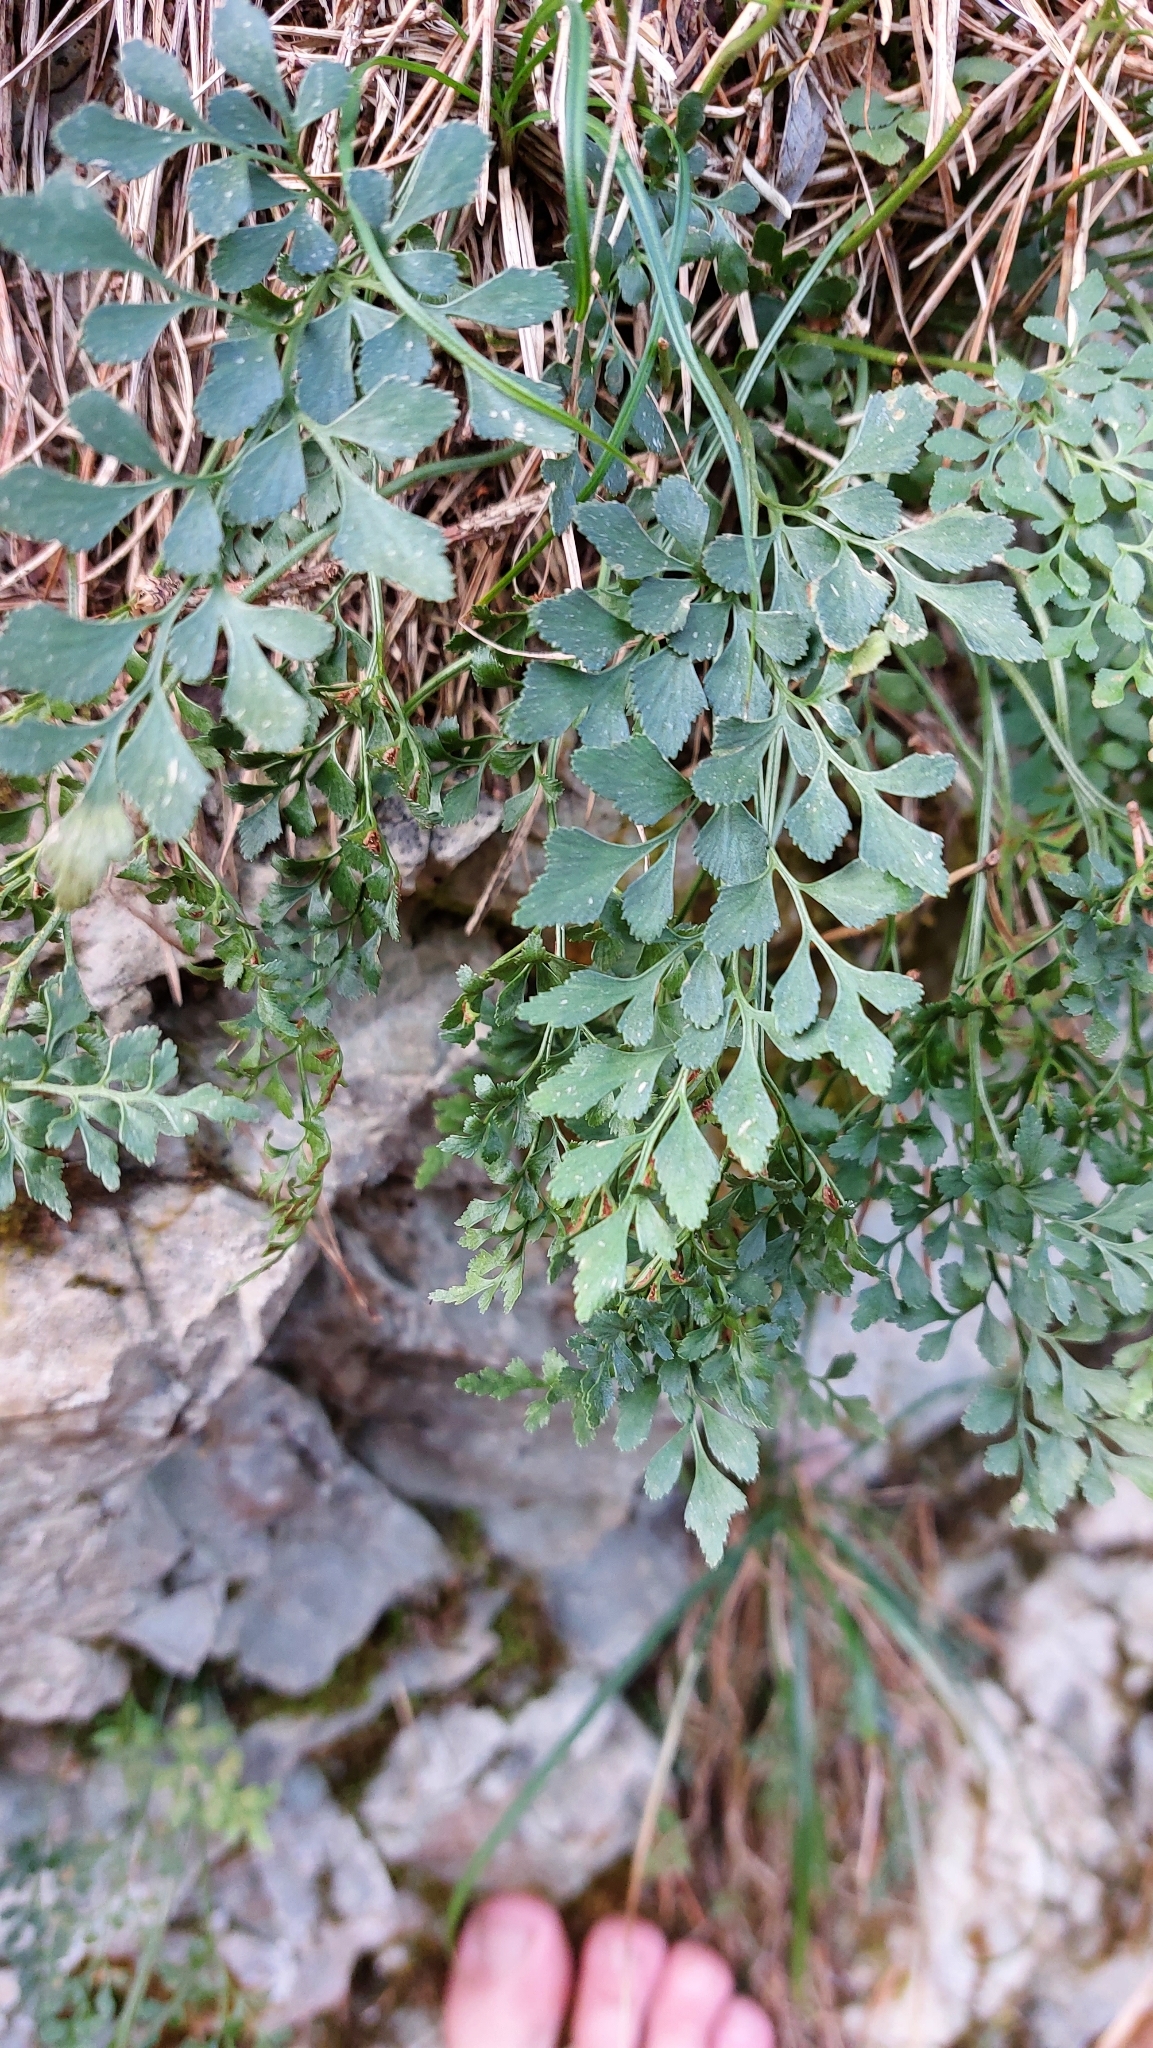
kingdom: Plantae
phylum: Tracheophyta
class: Polypodiopsida
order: Polypodiales
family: Aspleniaceae
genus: Asplenium
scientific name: Asplenium ruta-muraria
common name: Wall-rue
